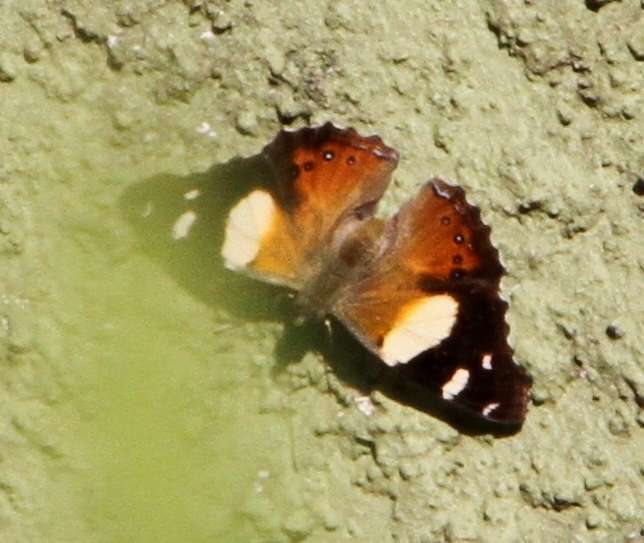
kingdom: Animalia
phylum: Arthropoda
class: Insecta
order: Lepidoptera
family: Nymphalidae
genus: Vanessa
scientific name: Vanessa itea
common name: Yellow admiral
